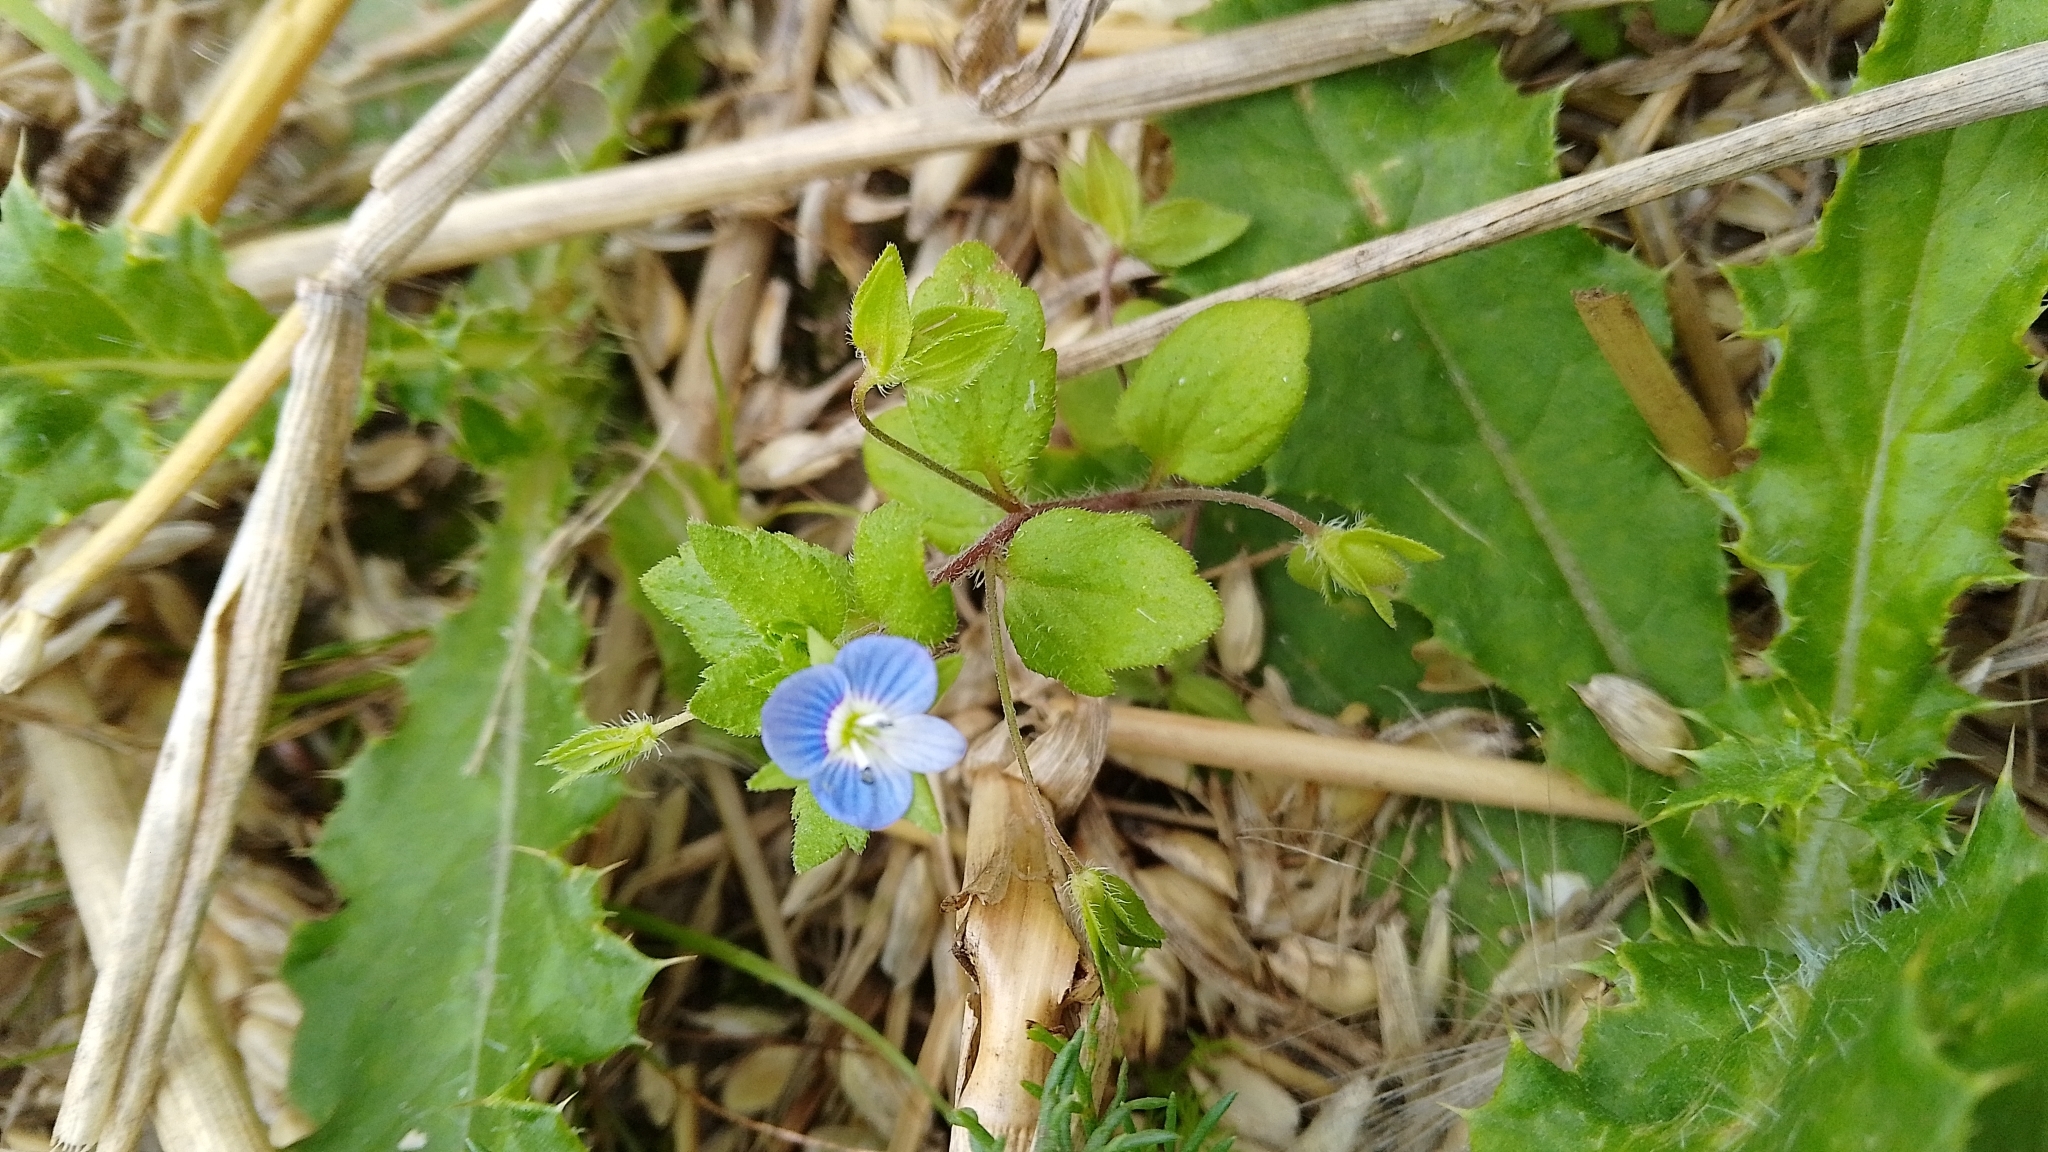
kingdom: Plantae
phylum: Tracheophyta
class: Magnoliopsida
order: Lamiales
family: Plantaginaceae
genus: Veronica
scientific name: Veronica persica
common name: Common field-speedwell
